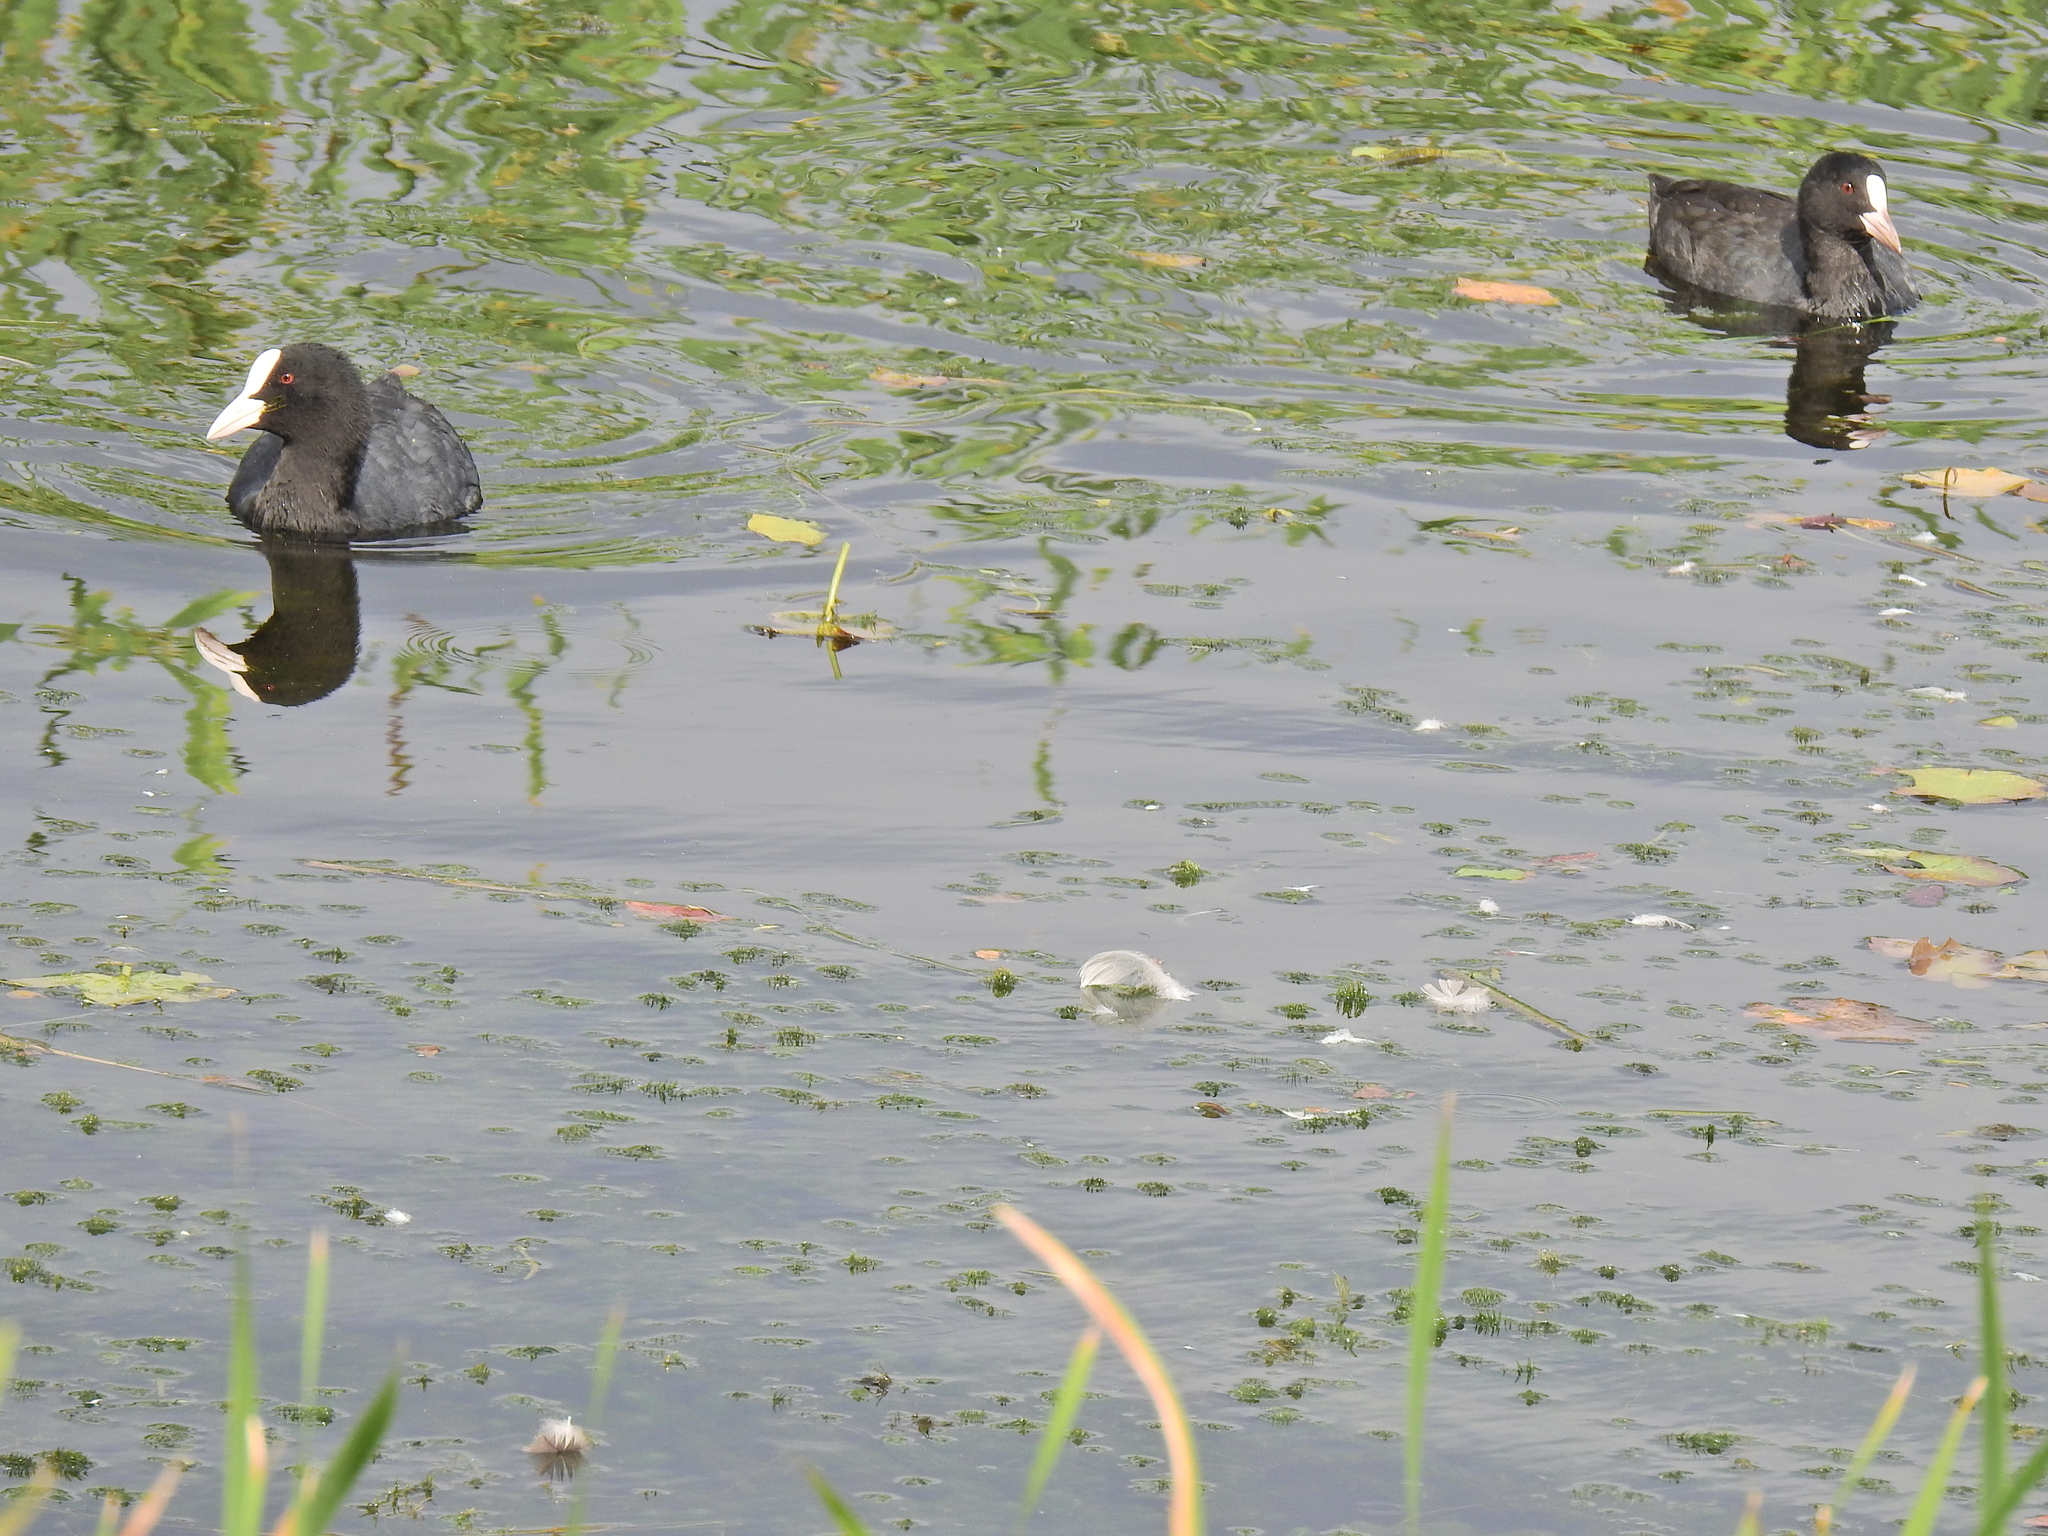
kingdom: Animalia
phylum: Chordata
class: Aves
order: Gruiformes
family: Rallidae
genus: Fulica
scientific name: Fulica atra
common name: Eurasian coot
